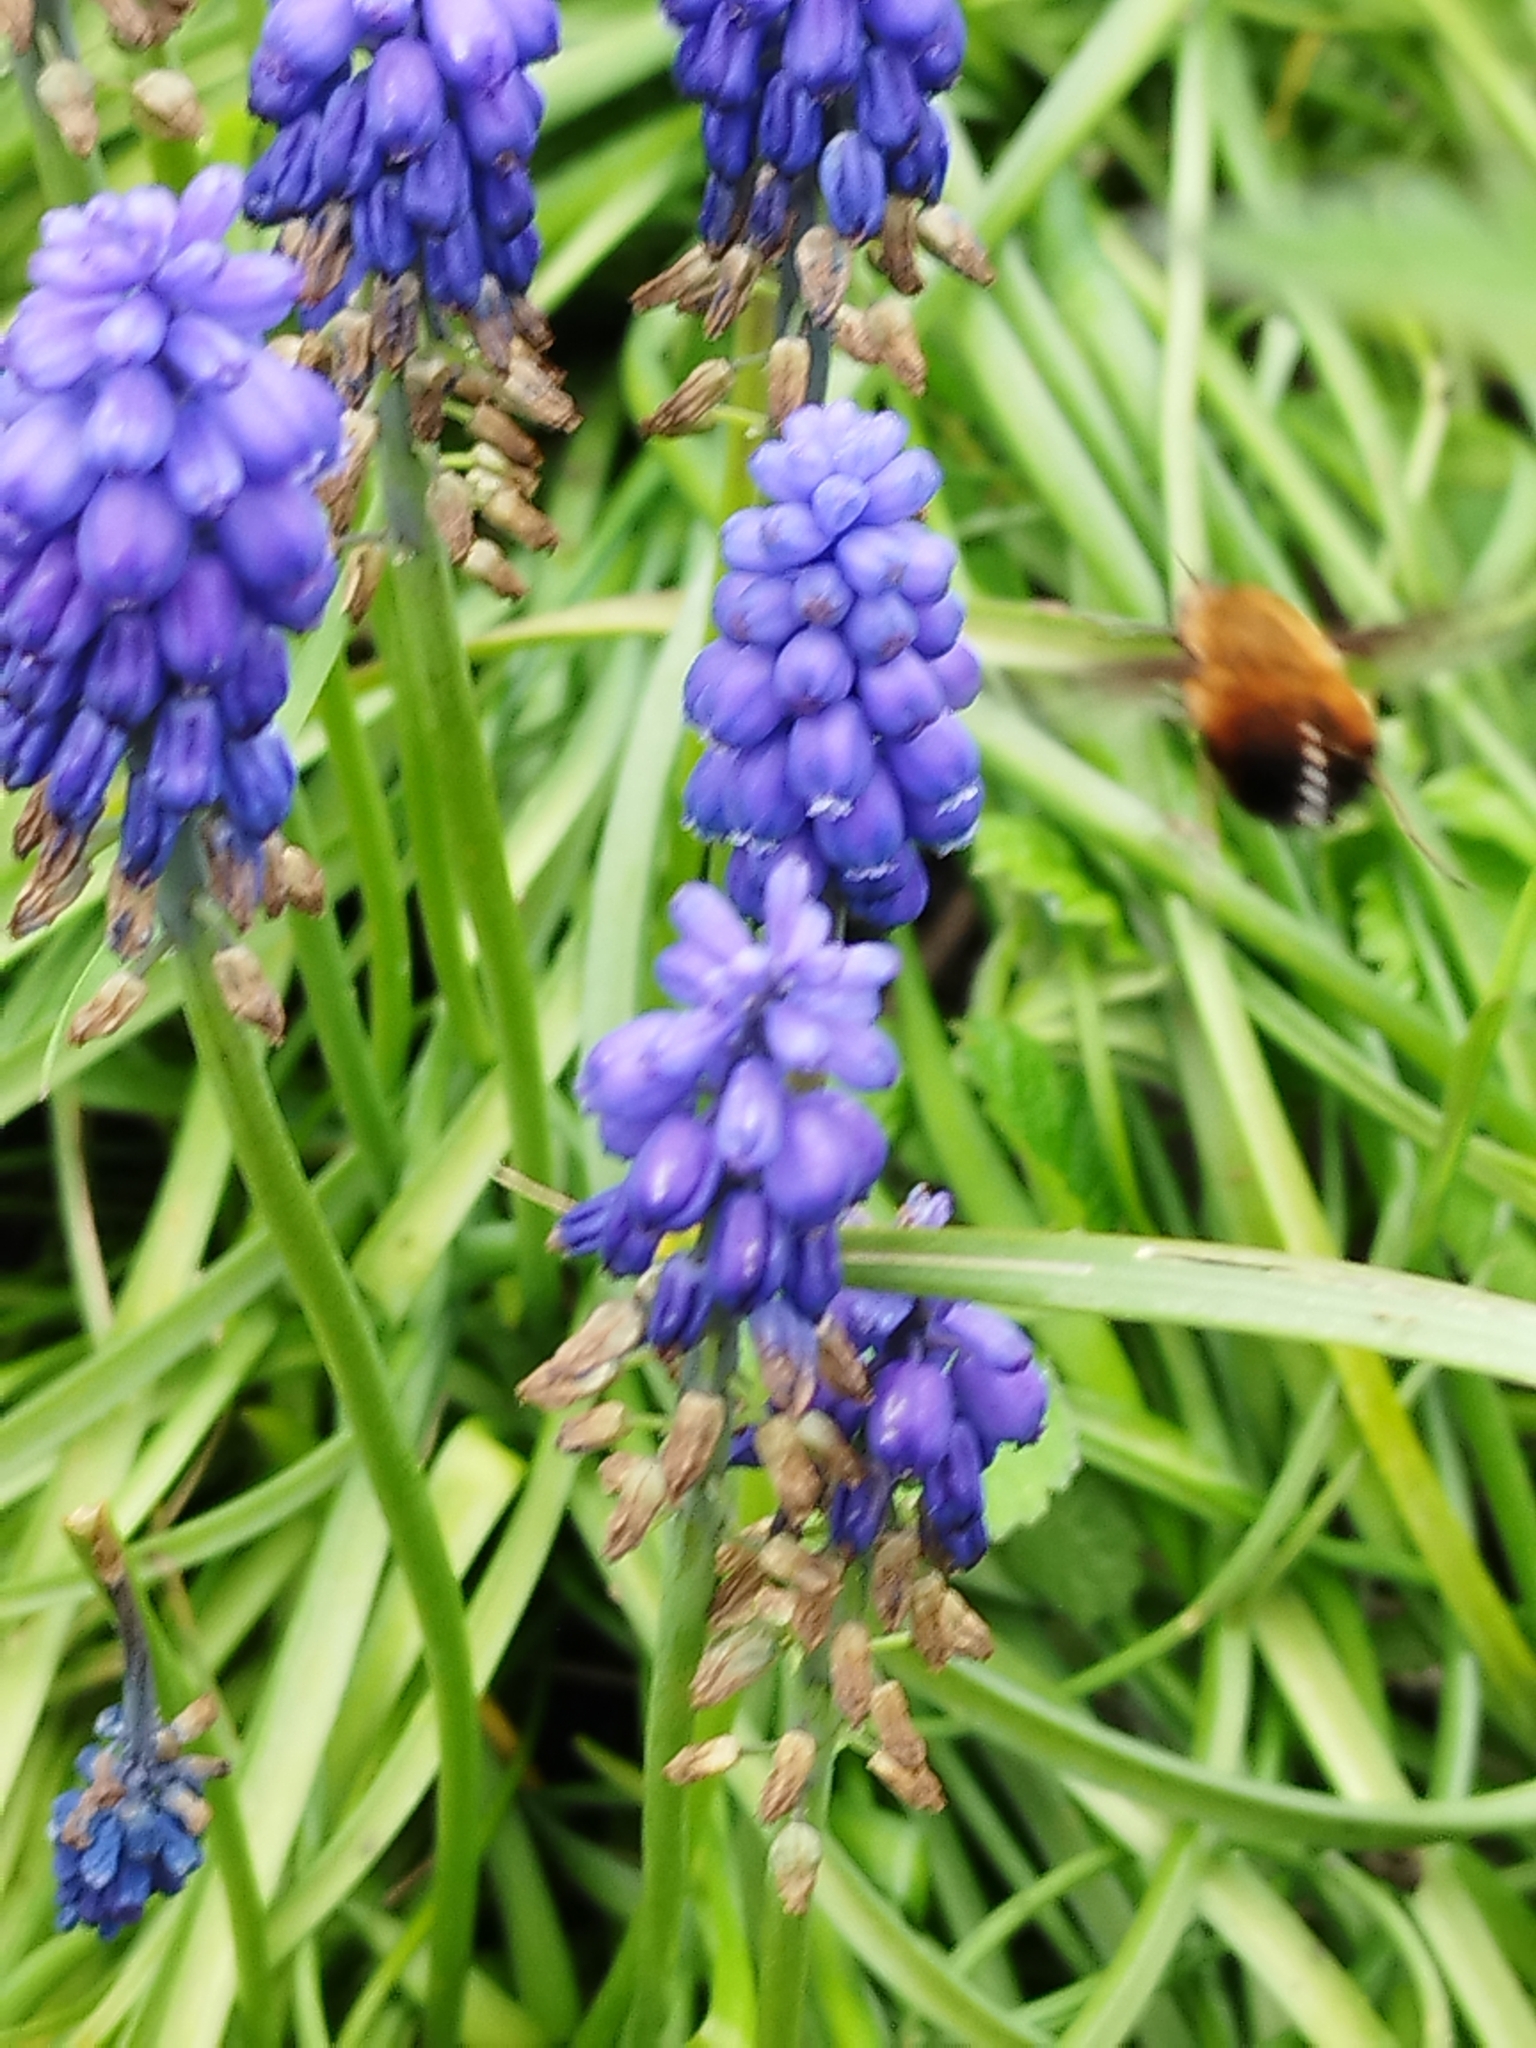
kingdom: Animalia
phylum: Arthropoda
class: Insecta
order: Diptera
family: Bombyliidae
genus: Bombylius
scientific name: Bombylius discolor
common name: Dotted bee-fly
